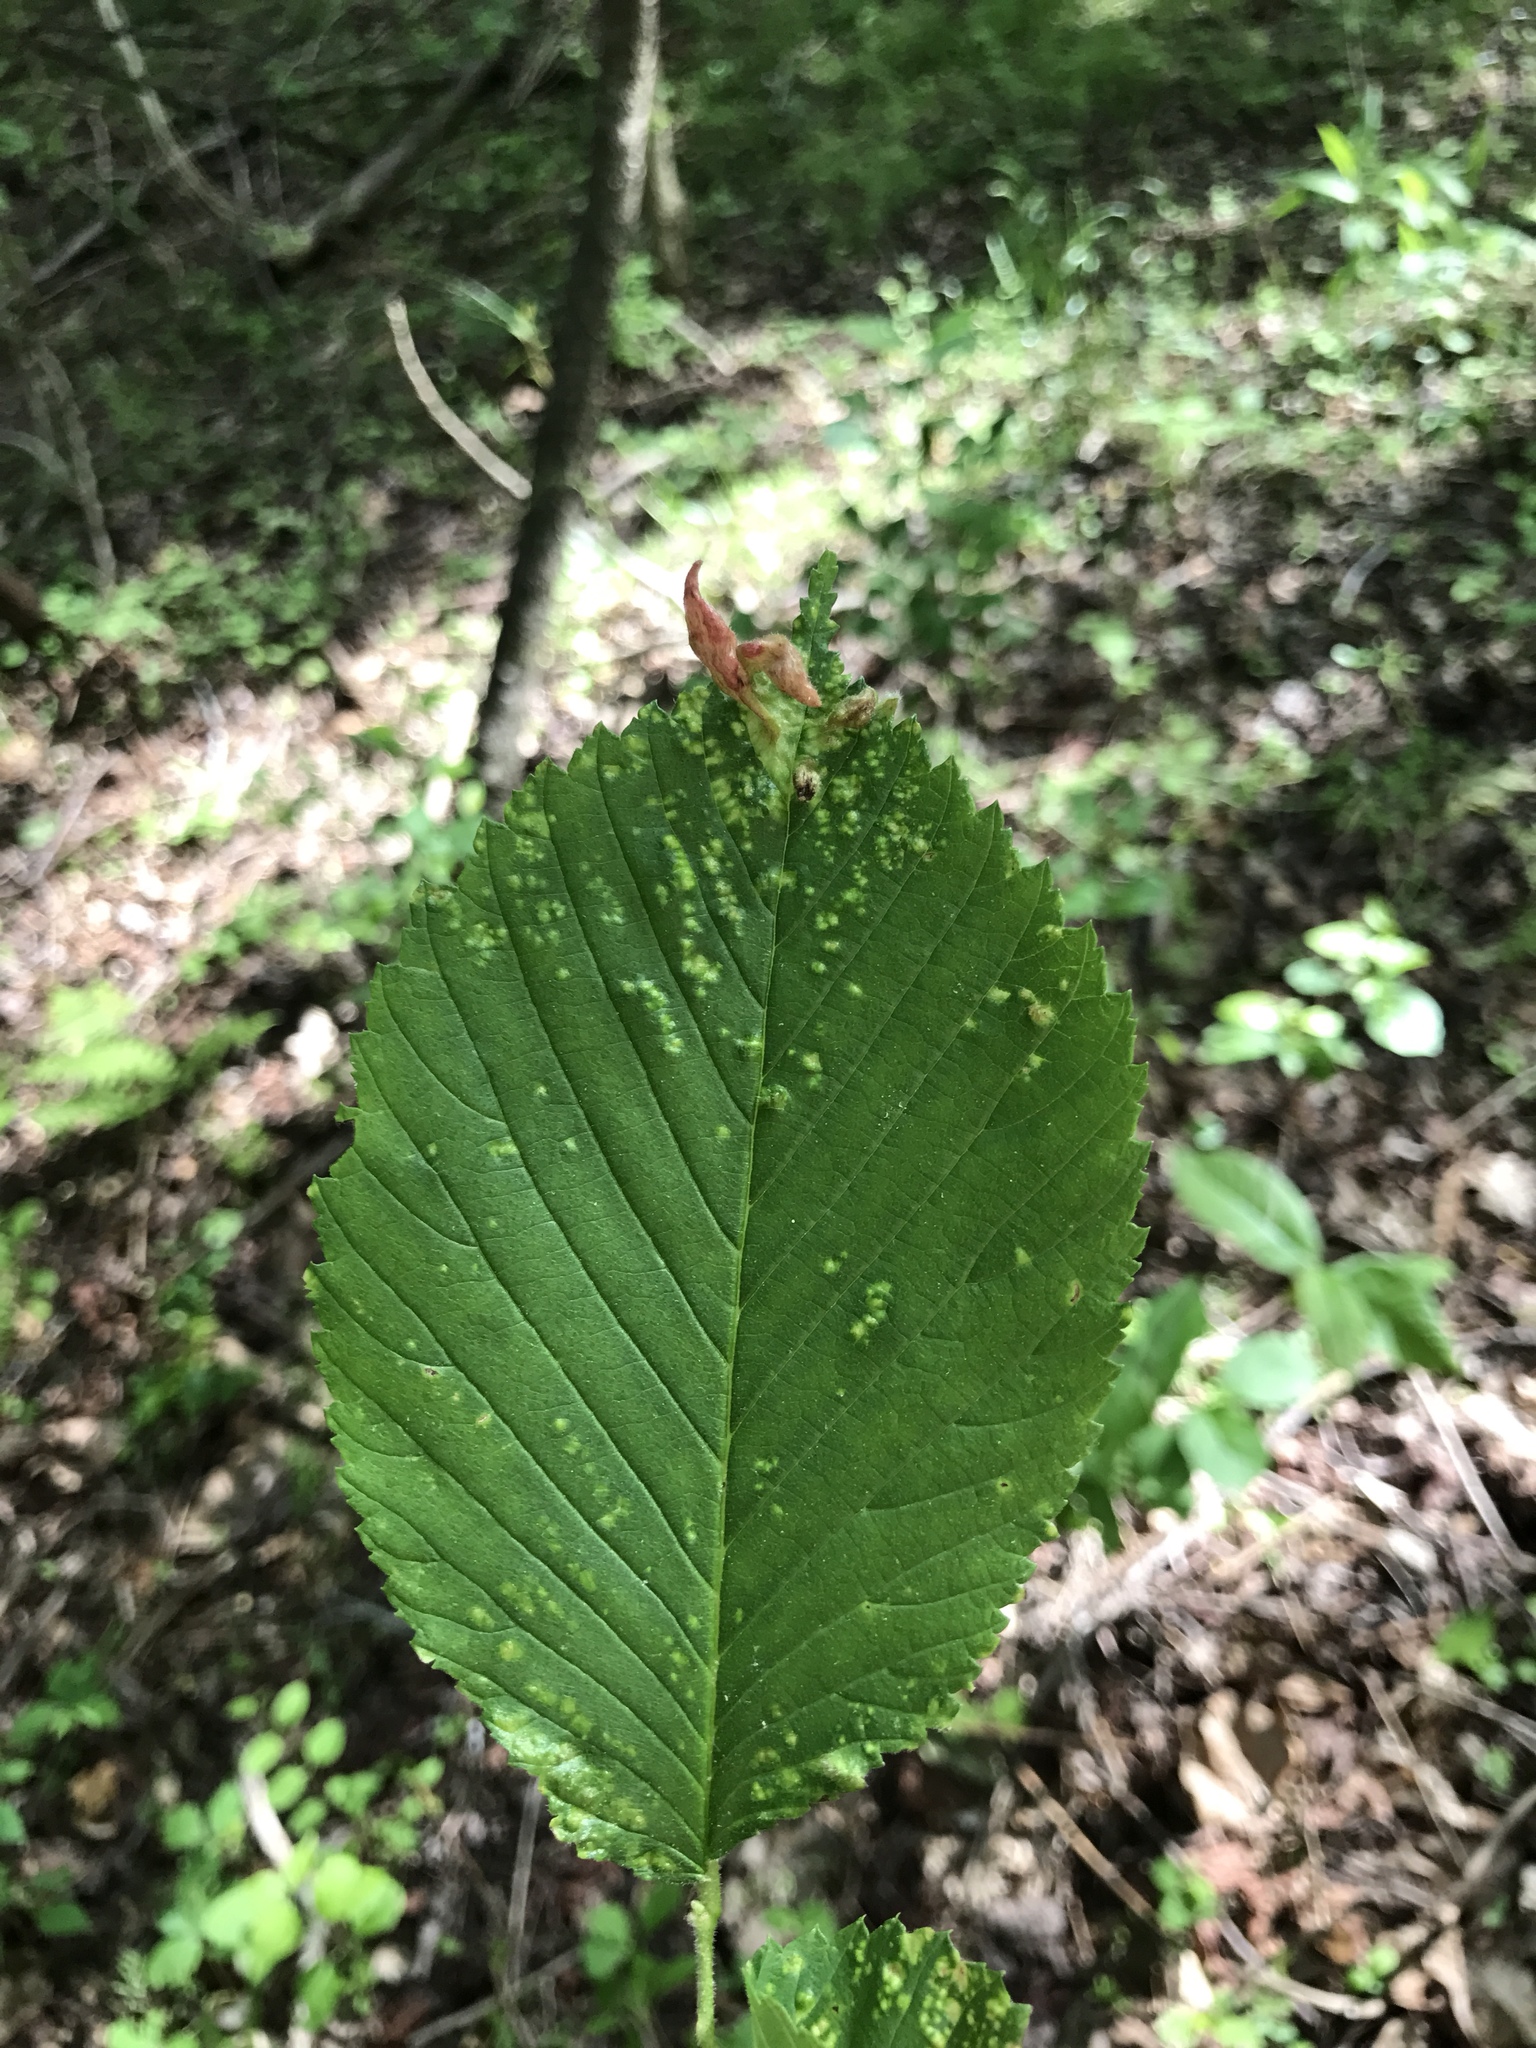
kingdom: Plantae
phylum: Tracheophyta
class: Magnoliopsida
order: Rosales
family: Ulmaceae
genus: Ulmus
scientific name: Ulmus rubra
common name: Slippery elm
